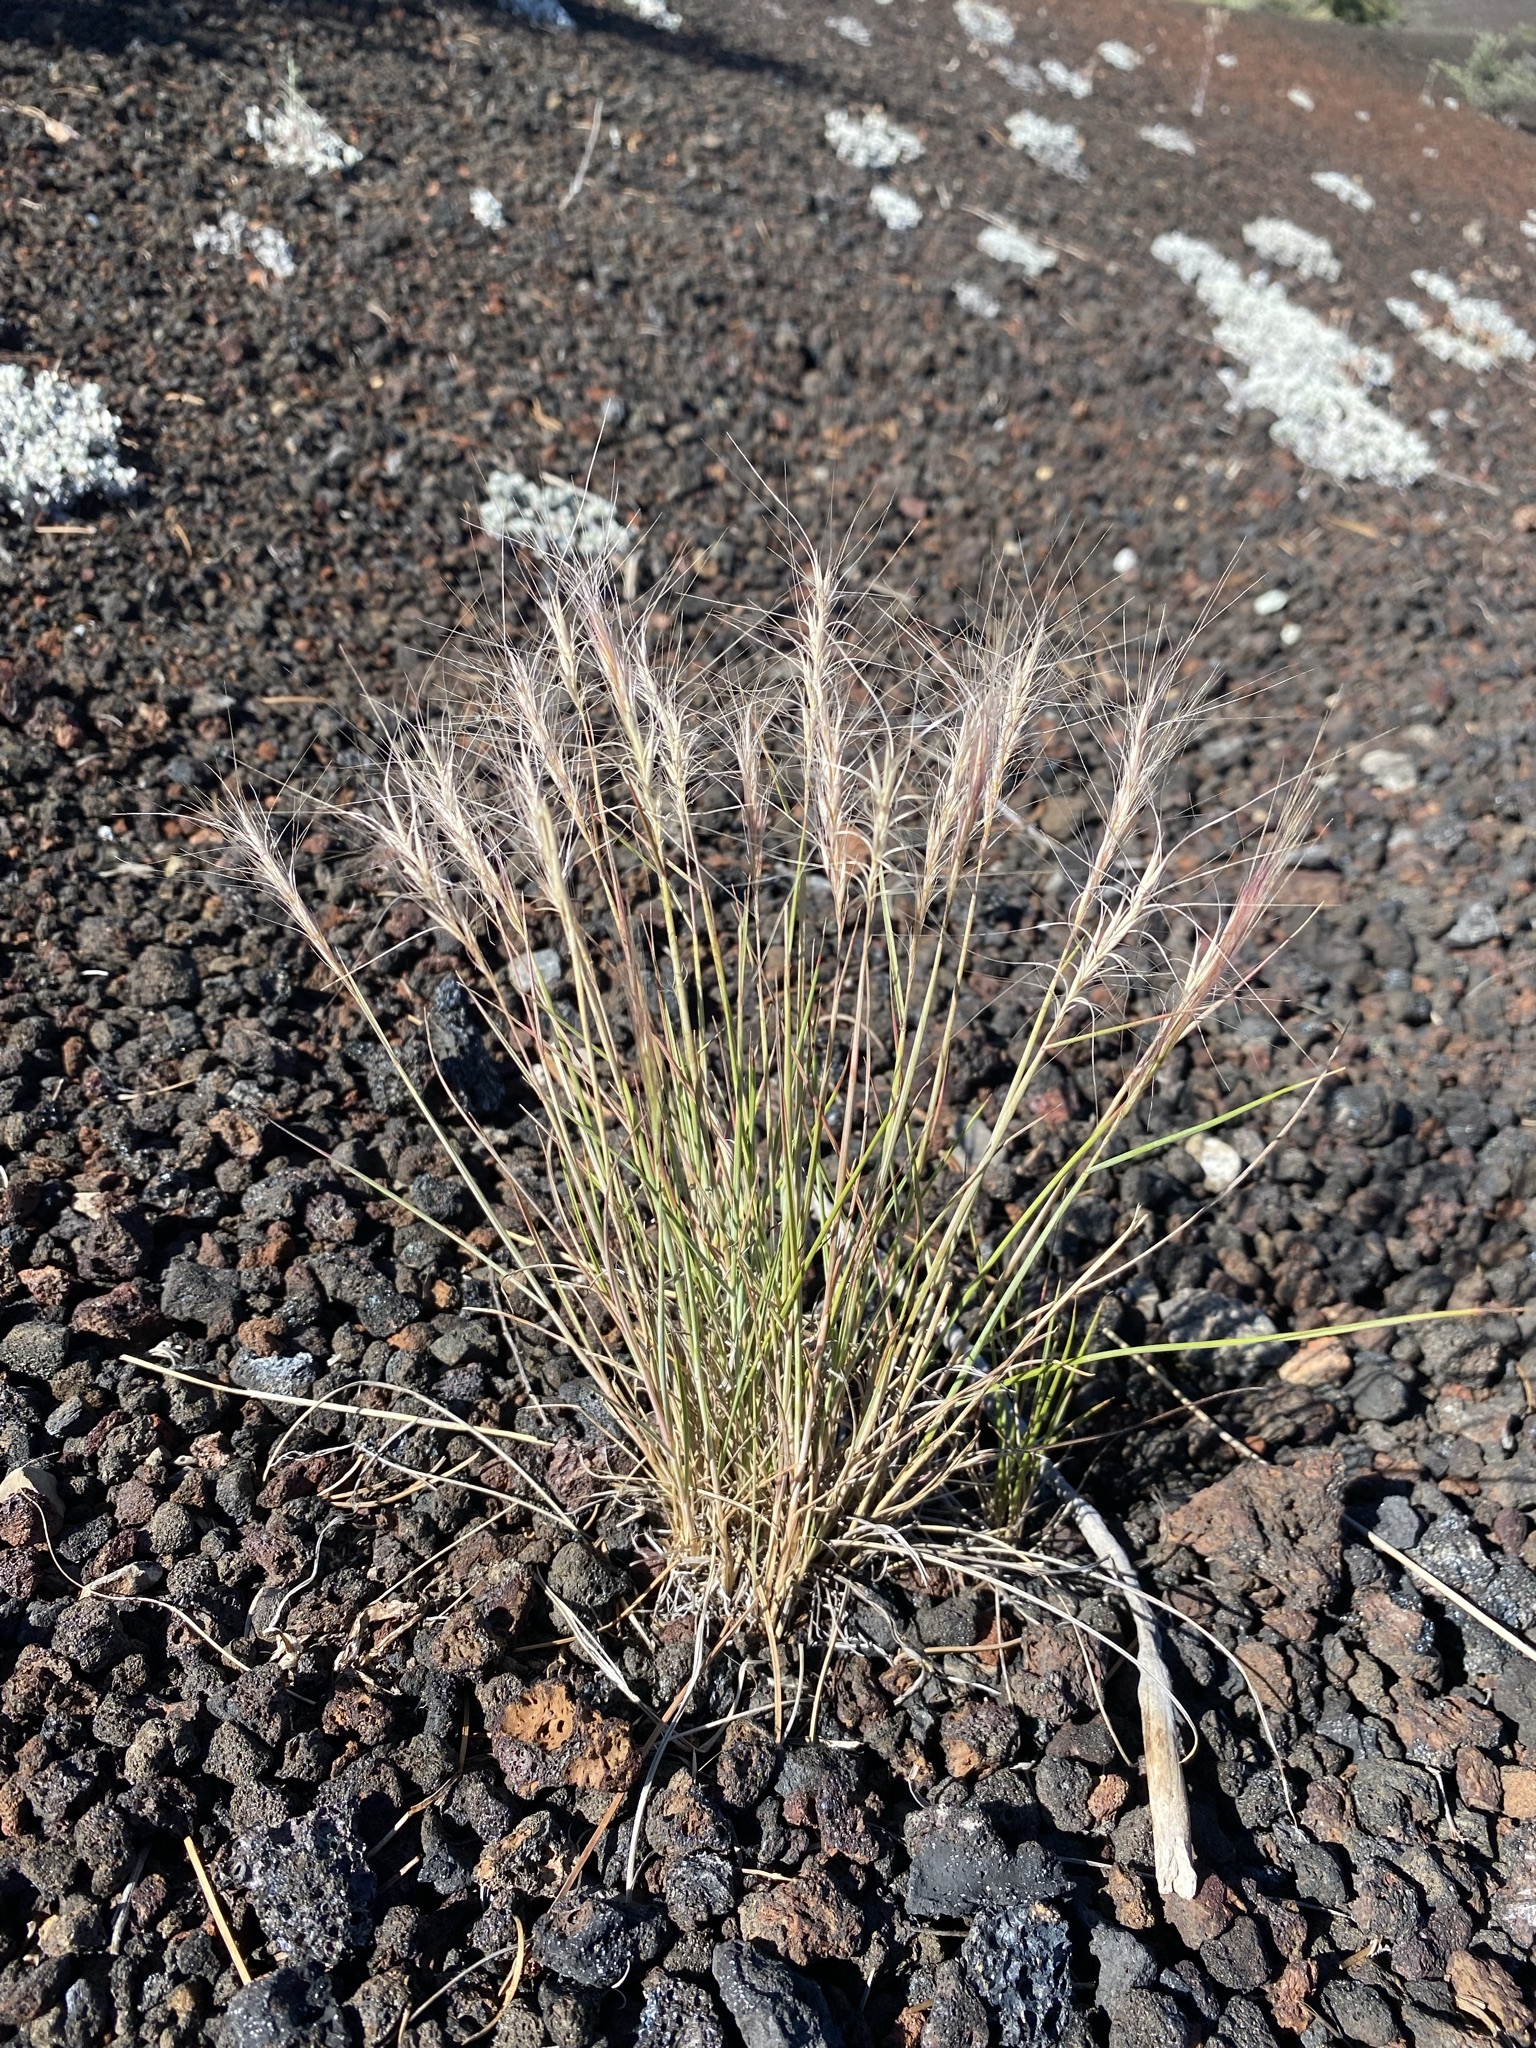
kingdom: Plantae
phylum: Tracheophyta
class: Liliopsida
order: Poales
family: Poaceae
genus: Elymus
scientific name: Elymus elymoides
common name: Bottlebrush squirreltail
